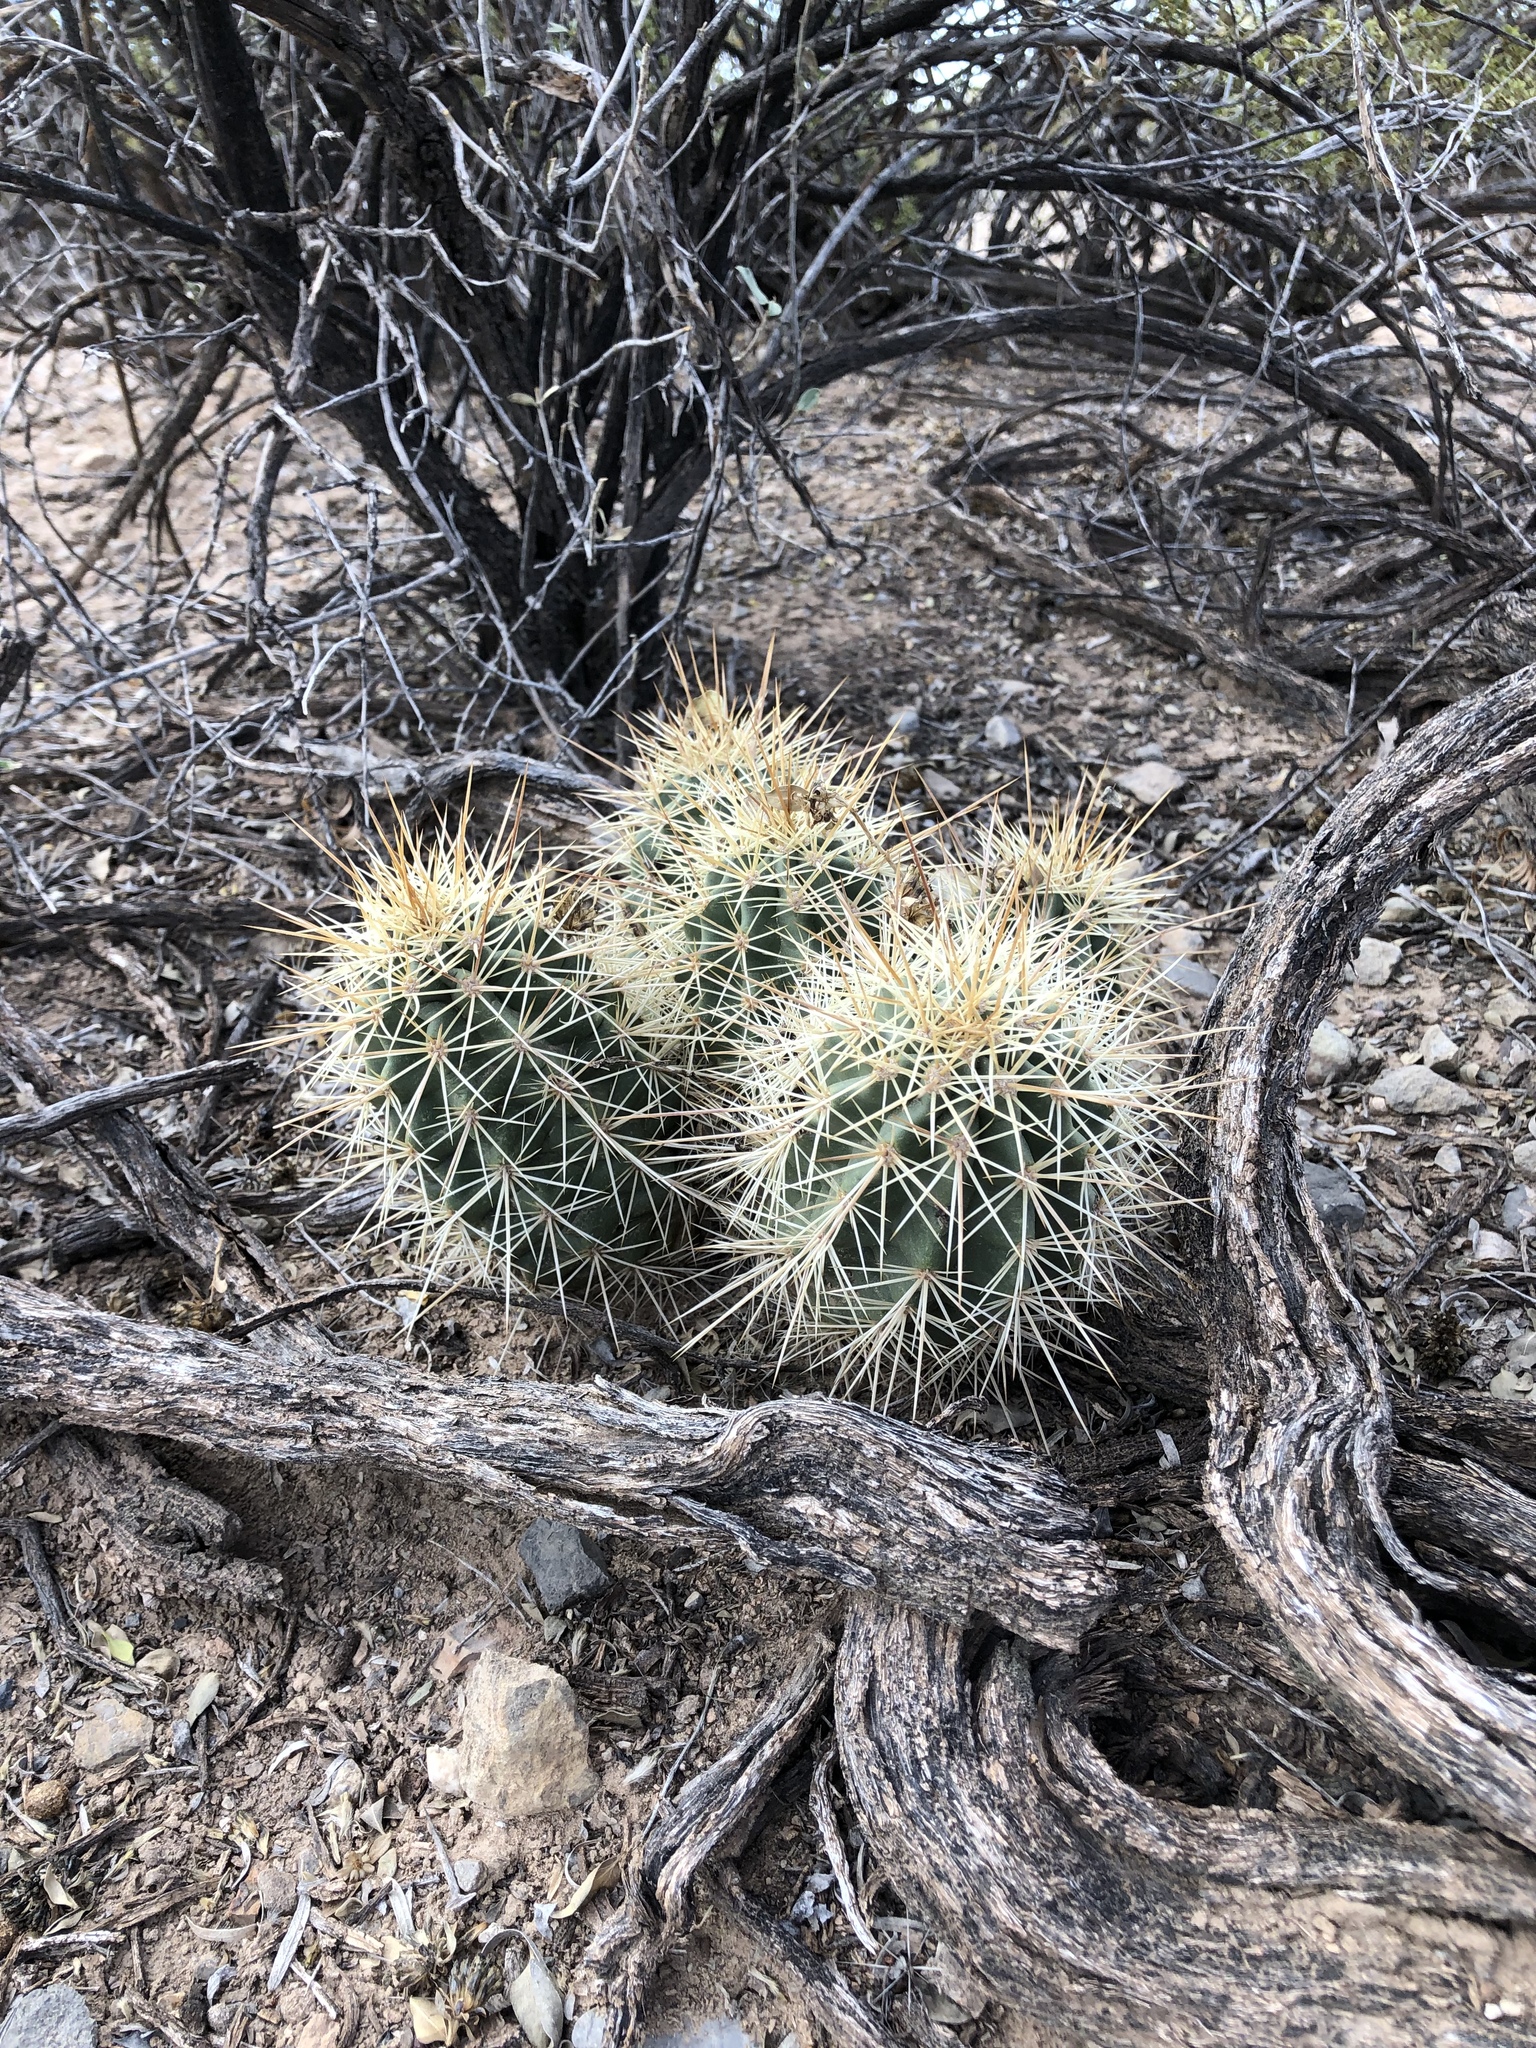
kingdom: Plantae
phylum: Tracheophyta
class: Magnoliopsida
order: Caryophyllales
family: Cactaceae
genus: Echinocereus
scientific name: Echinocereus coccineus
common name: Scarlet hedgehog cactus
